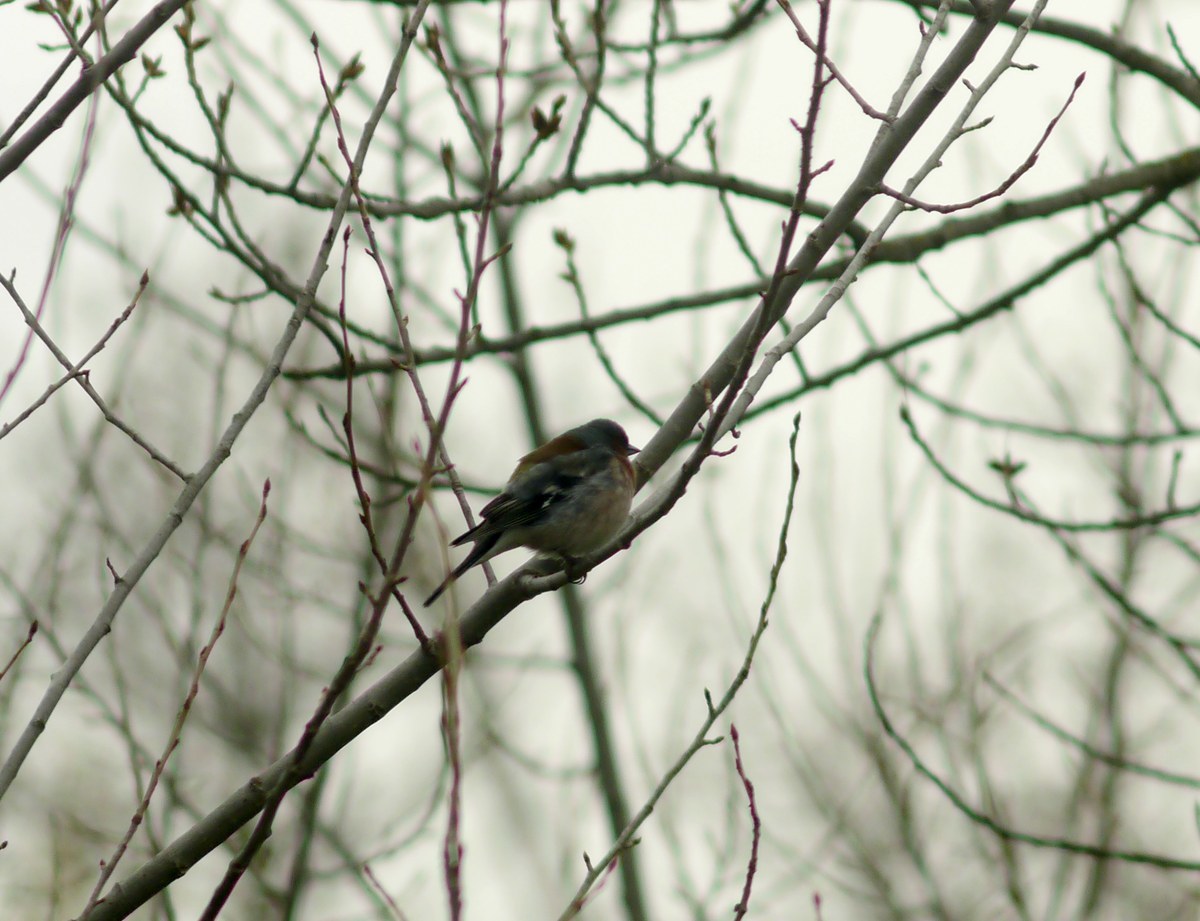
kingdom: Animalia
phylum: Chordata
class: Aves
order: Passeriformes
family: Fringillidae
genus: Fringilla
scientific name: Fringilla coelebs
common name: Common chaffinch
